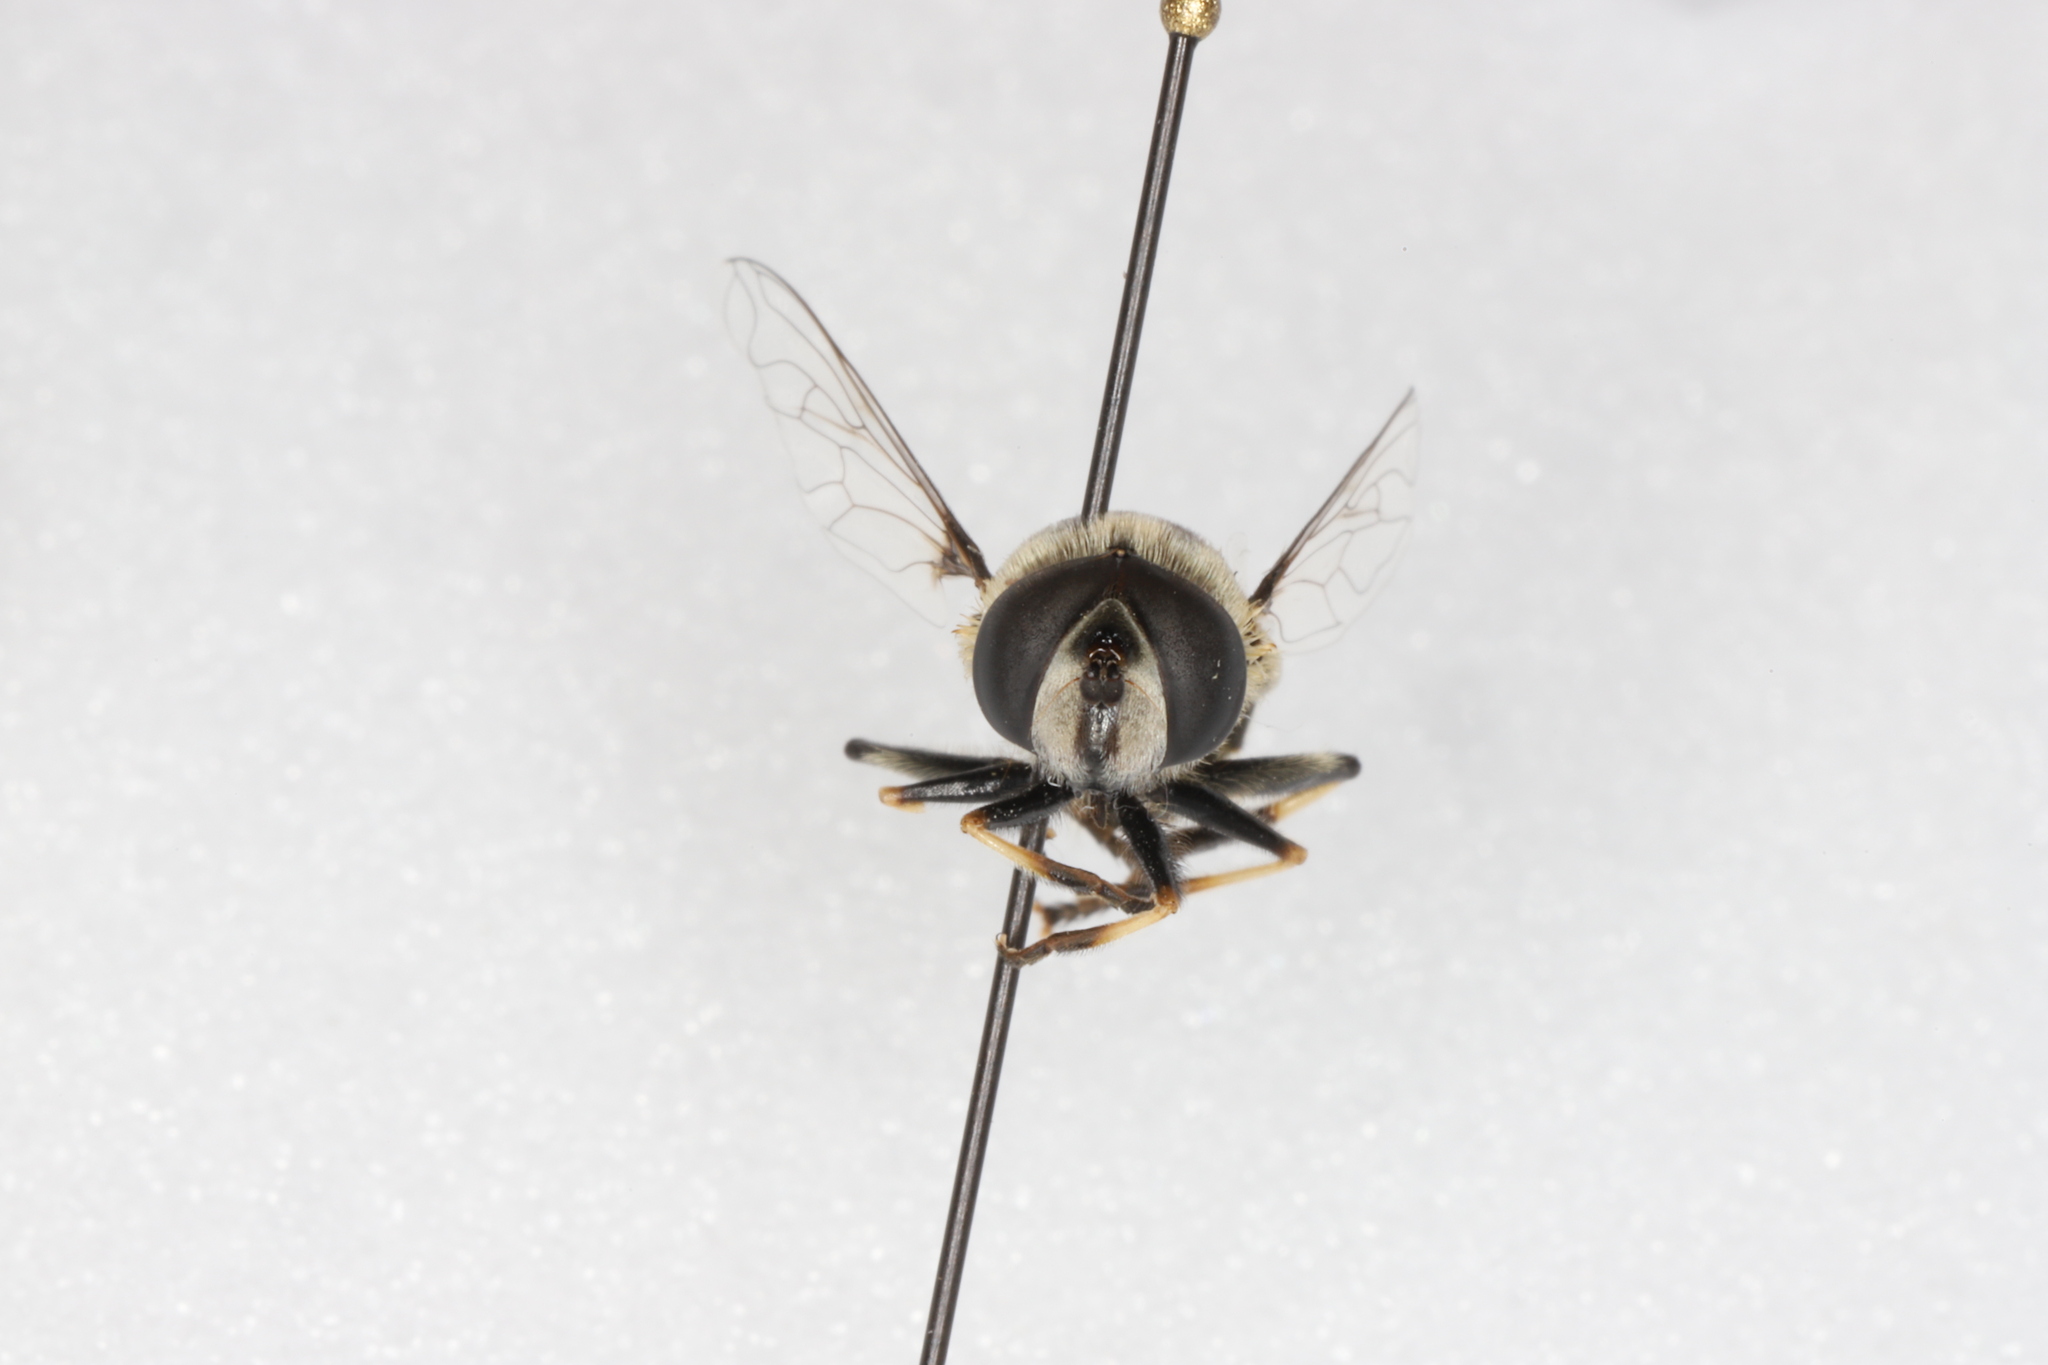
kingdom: Animalia
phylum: Arthropoda
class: Insecta
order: Diptera
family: Syrphidae
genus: Eristalis
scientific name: Eristalis dimidiata
